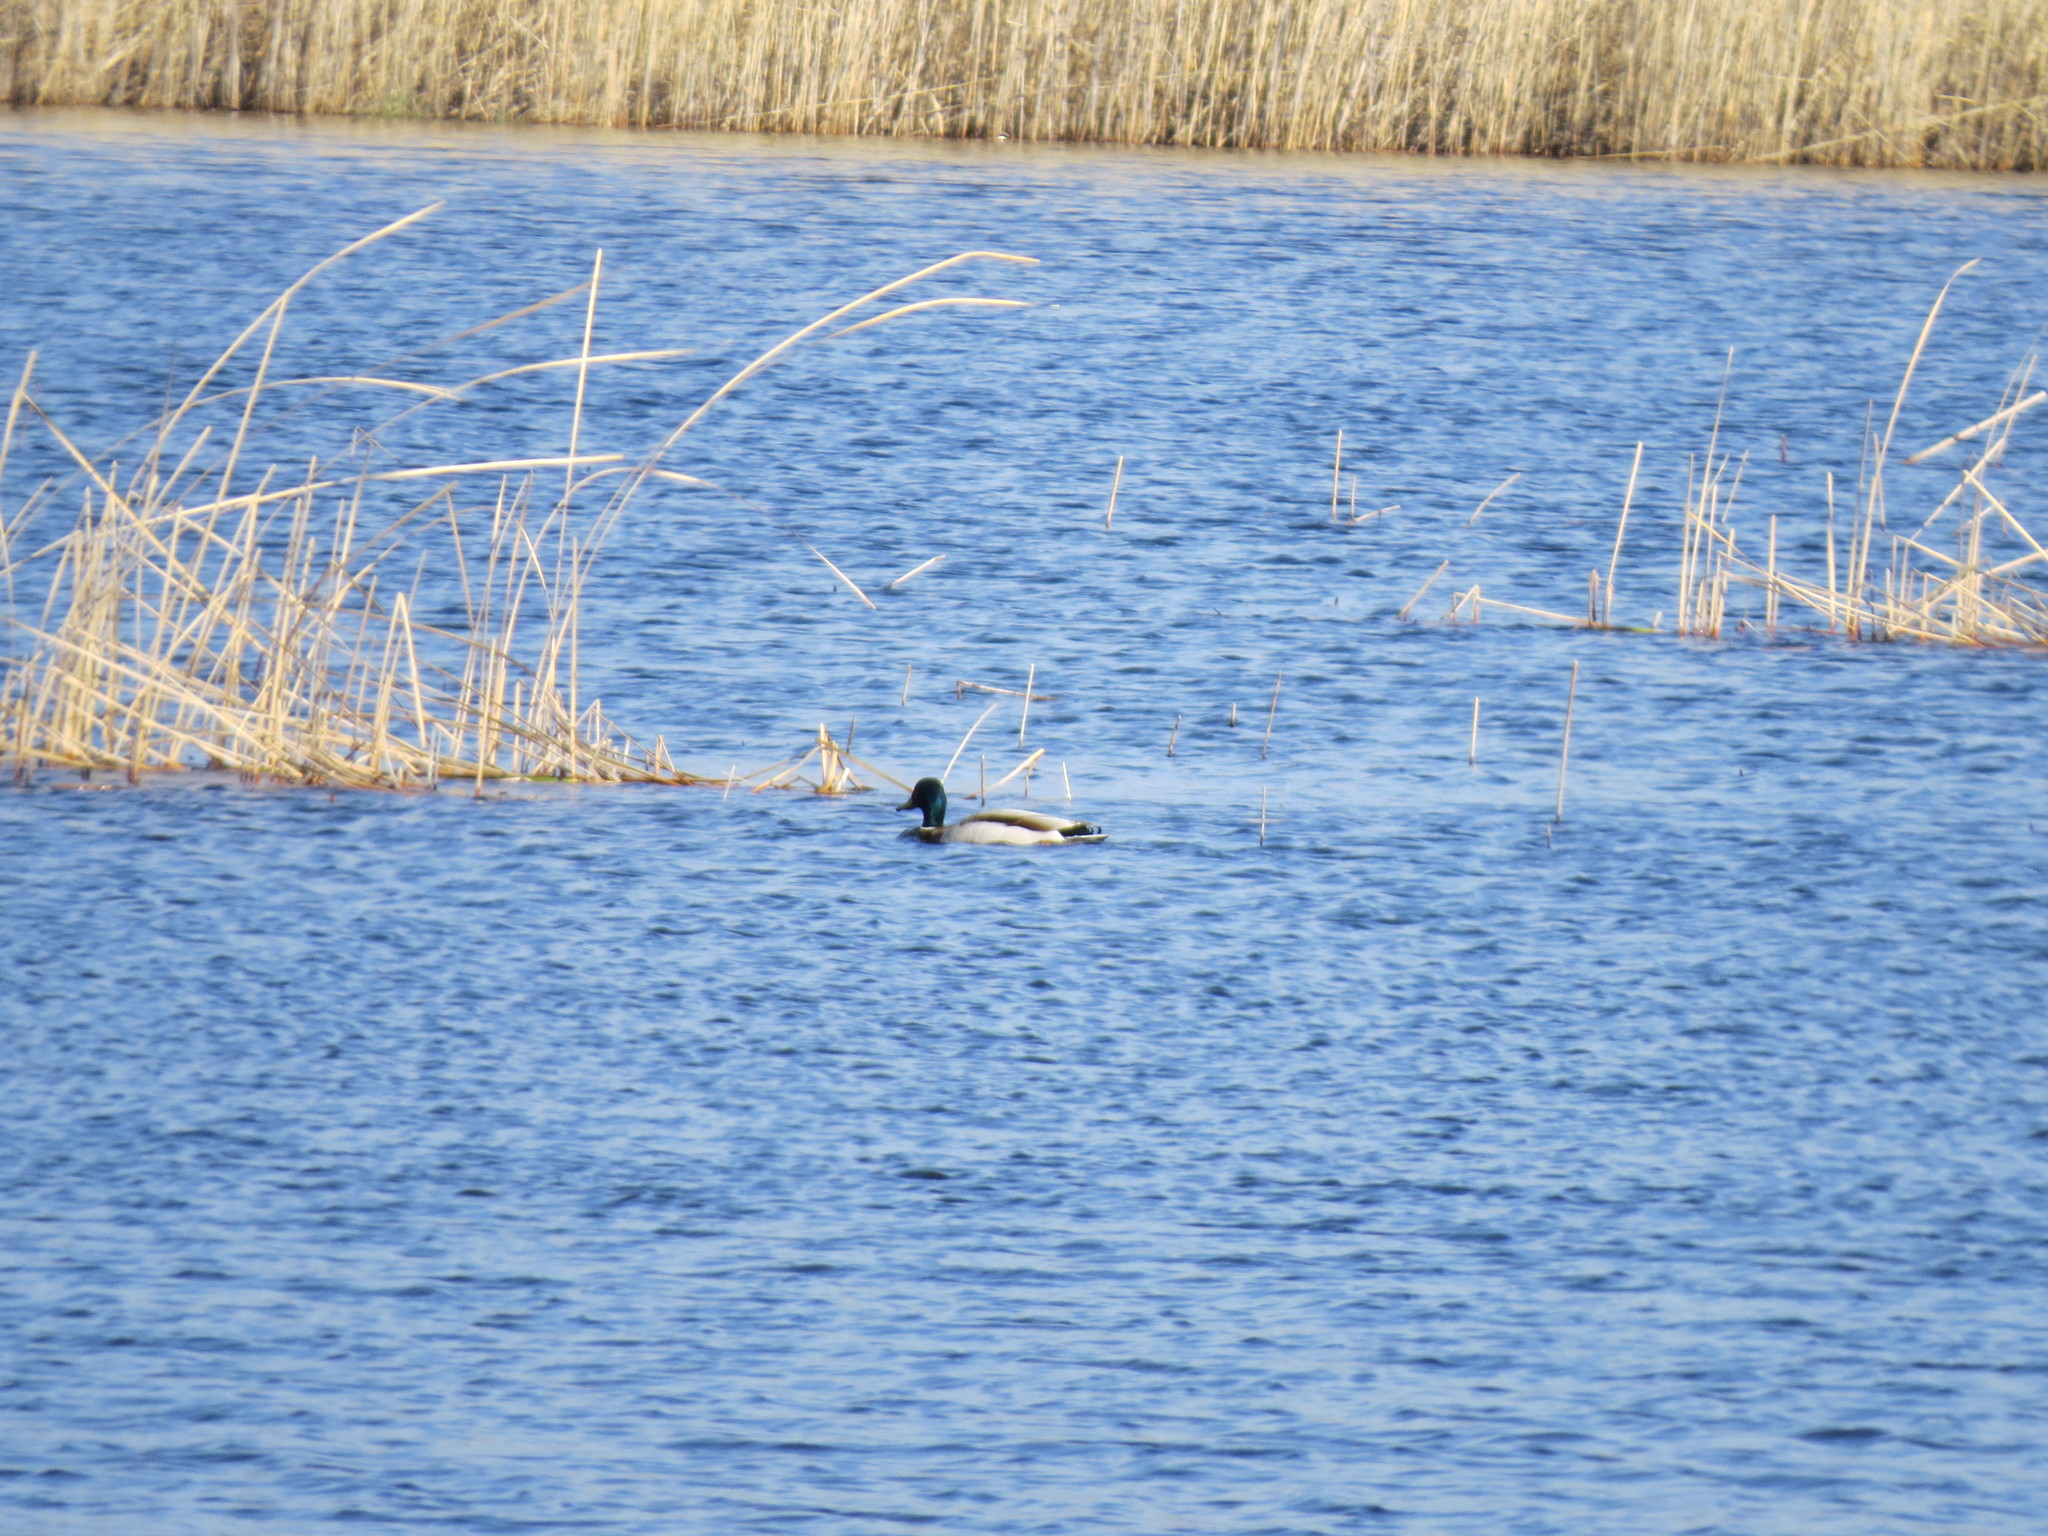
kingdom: Animalia
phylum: Chordata
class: Aves
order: Anseriformes
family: Anatidae
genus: Anas
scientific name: Anas platyrhynchos
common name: Mallard
